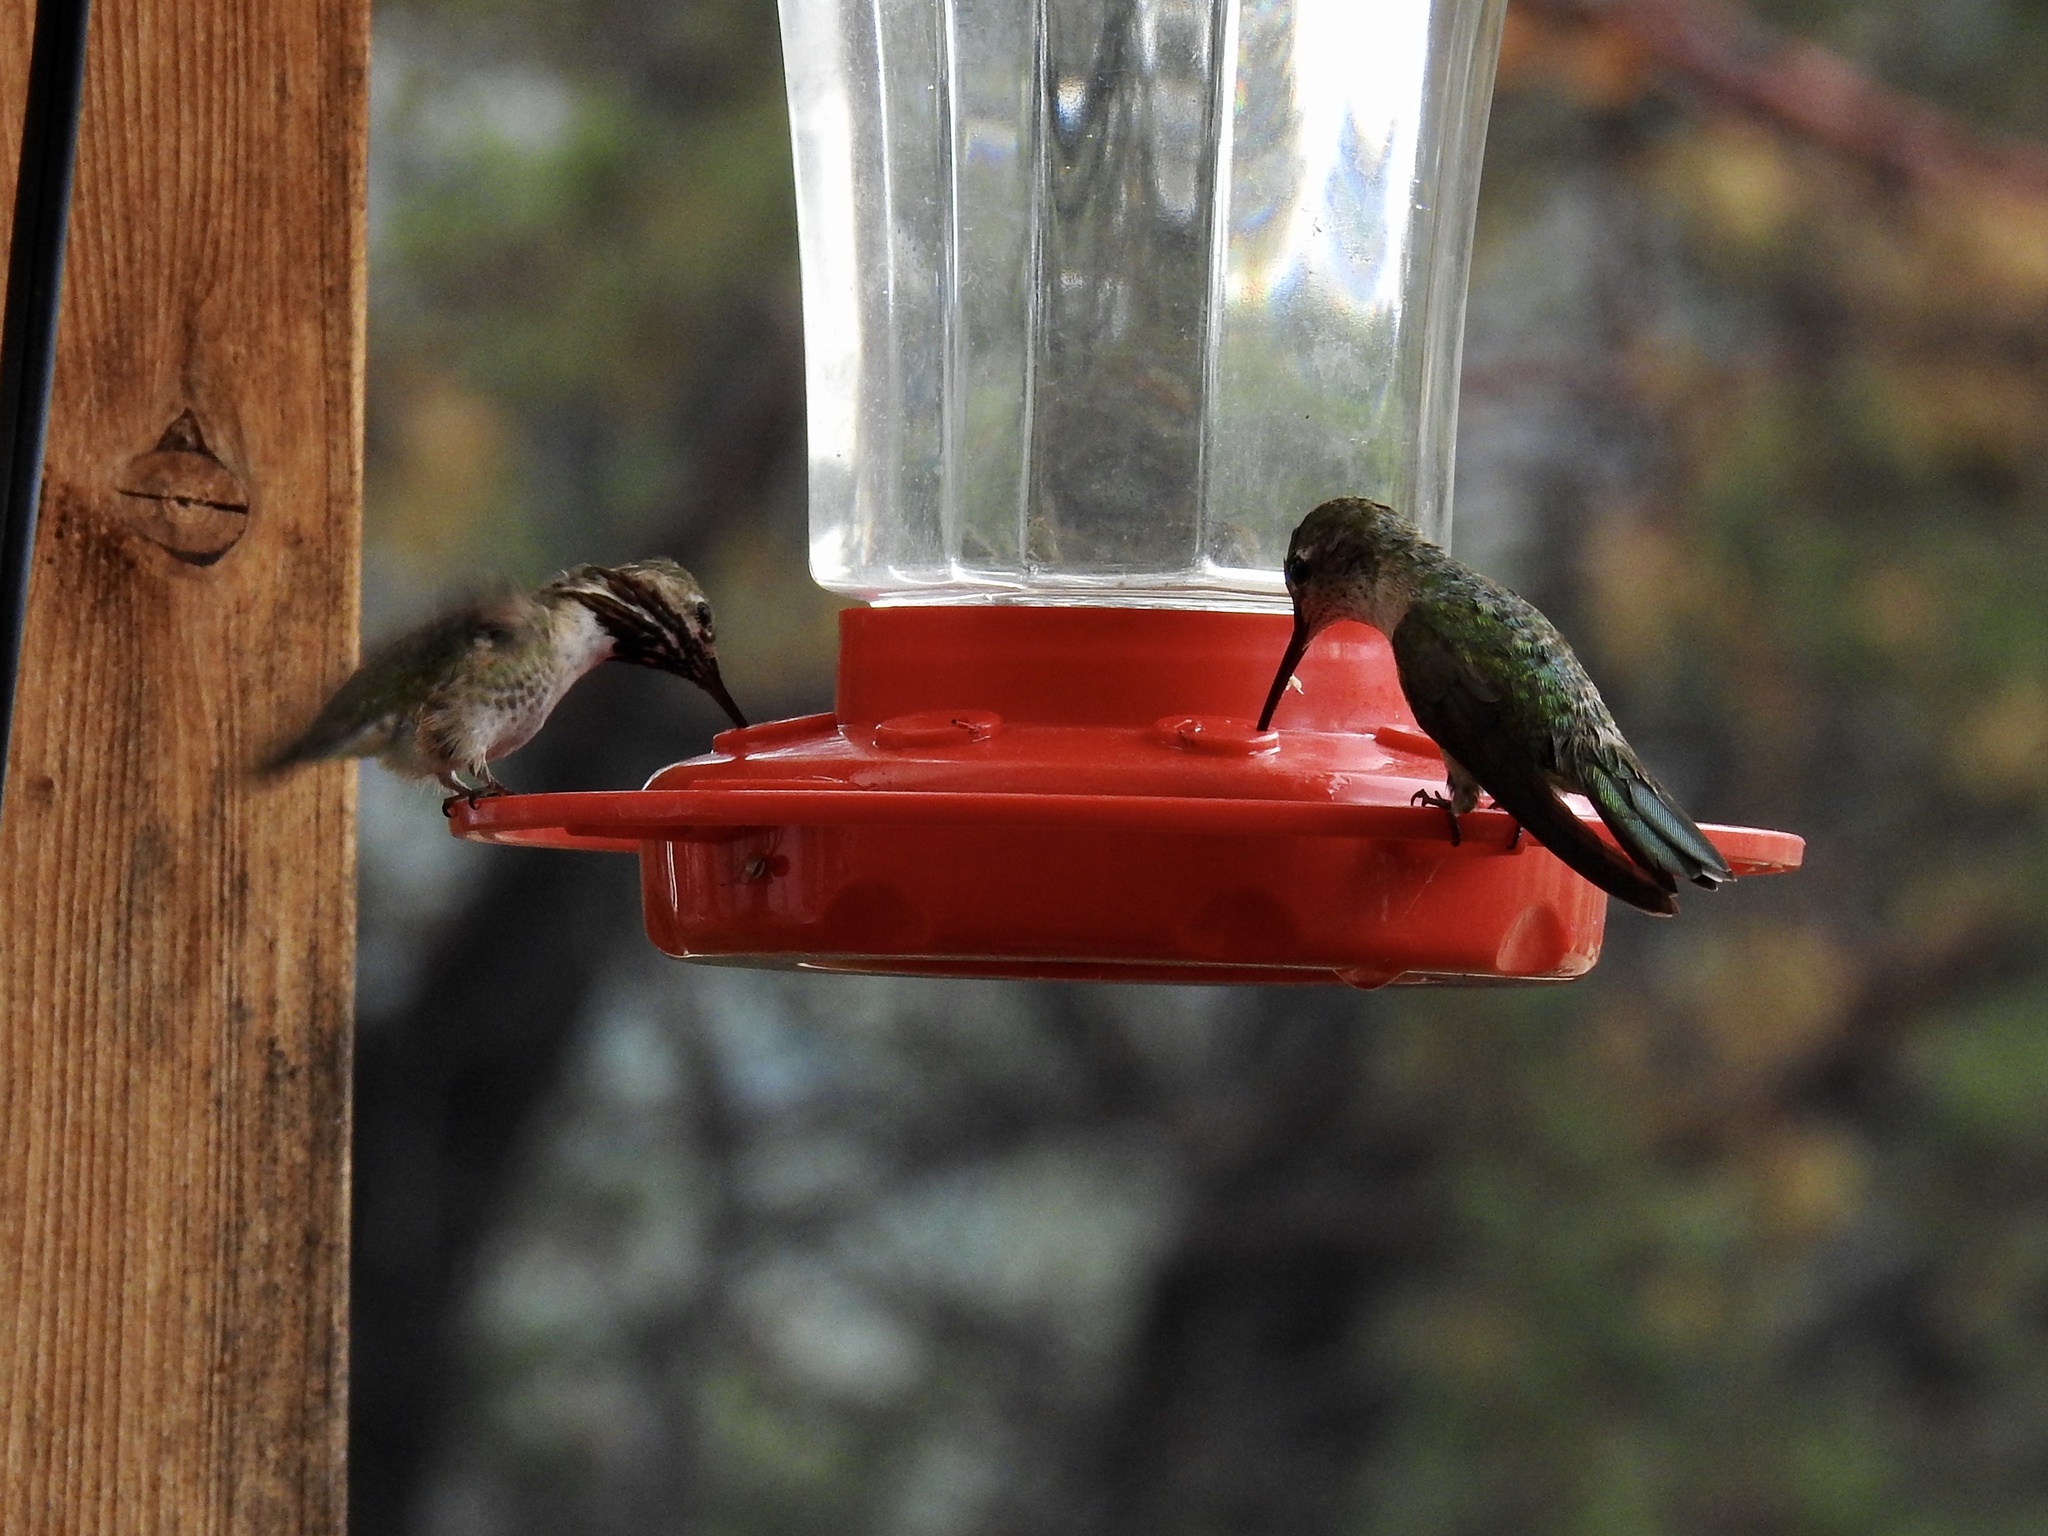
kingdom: Animalia
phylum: Chordata
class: Aves
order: Apodiformes
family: Trochilidae
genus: Selasphorus
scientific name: Selasphorus calliope
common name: Calliope hummingbird
